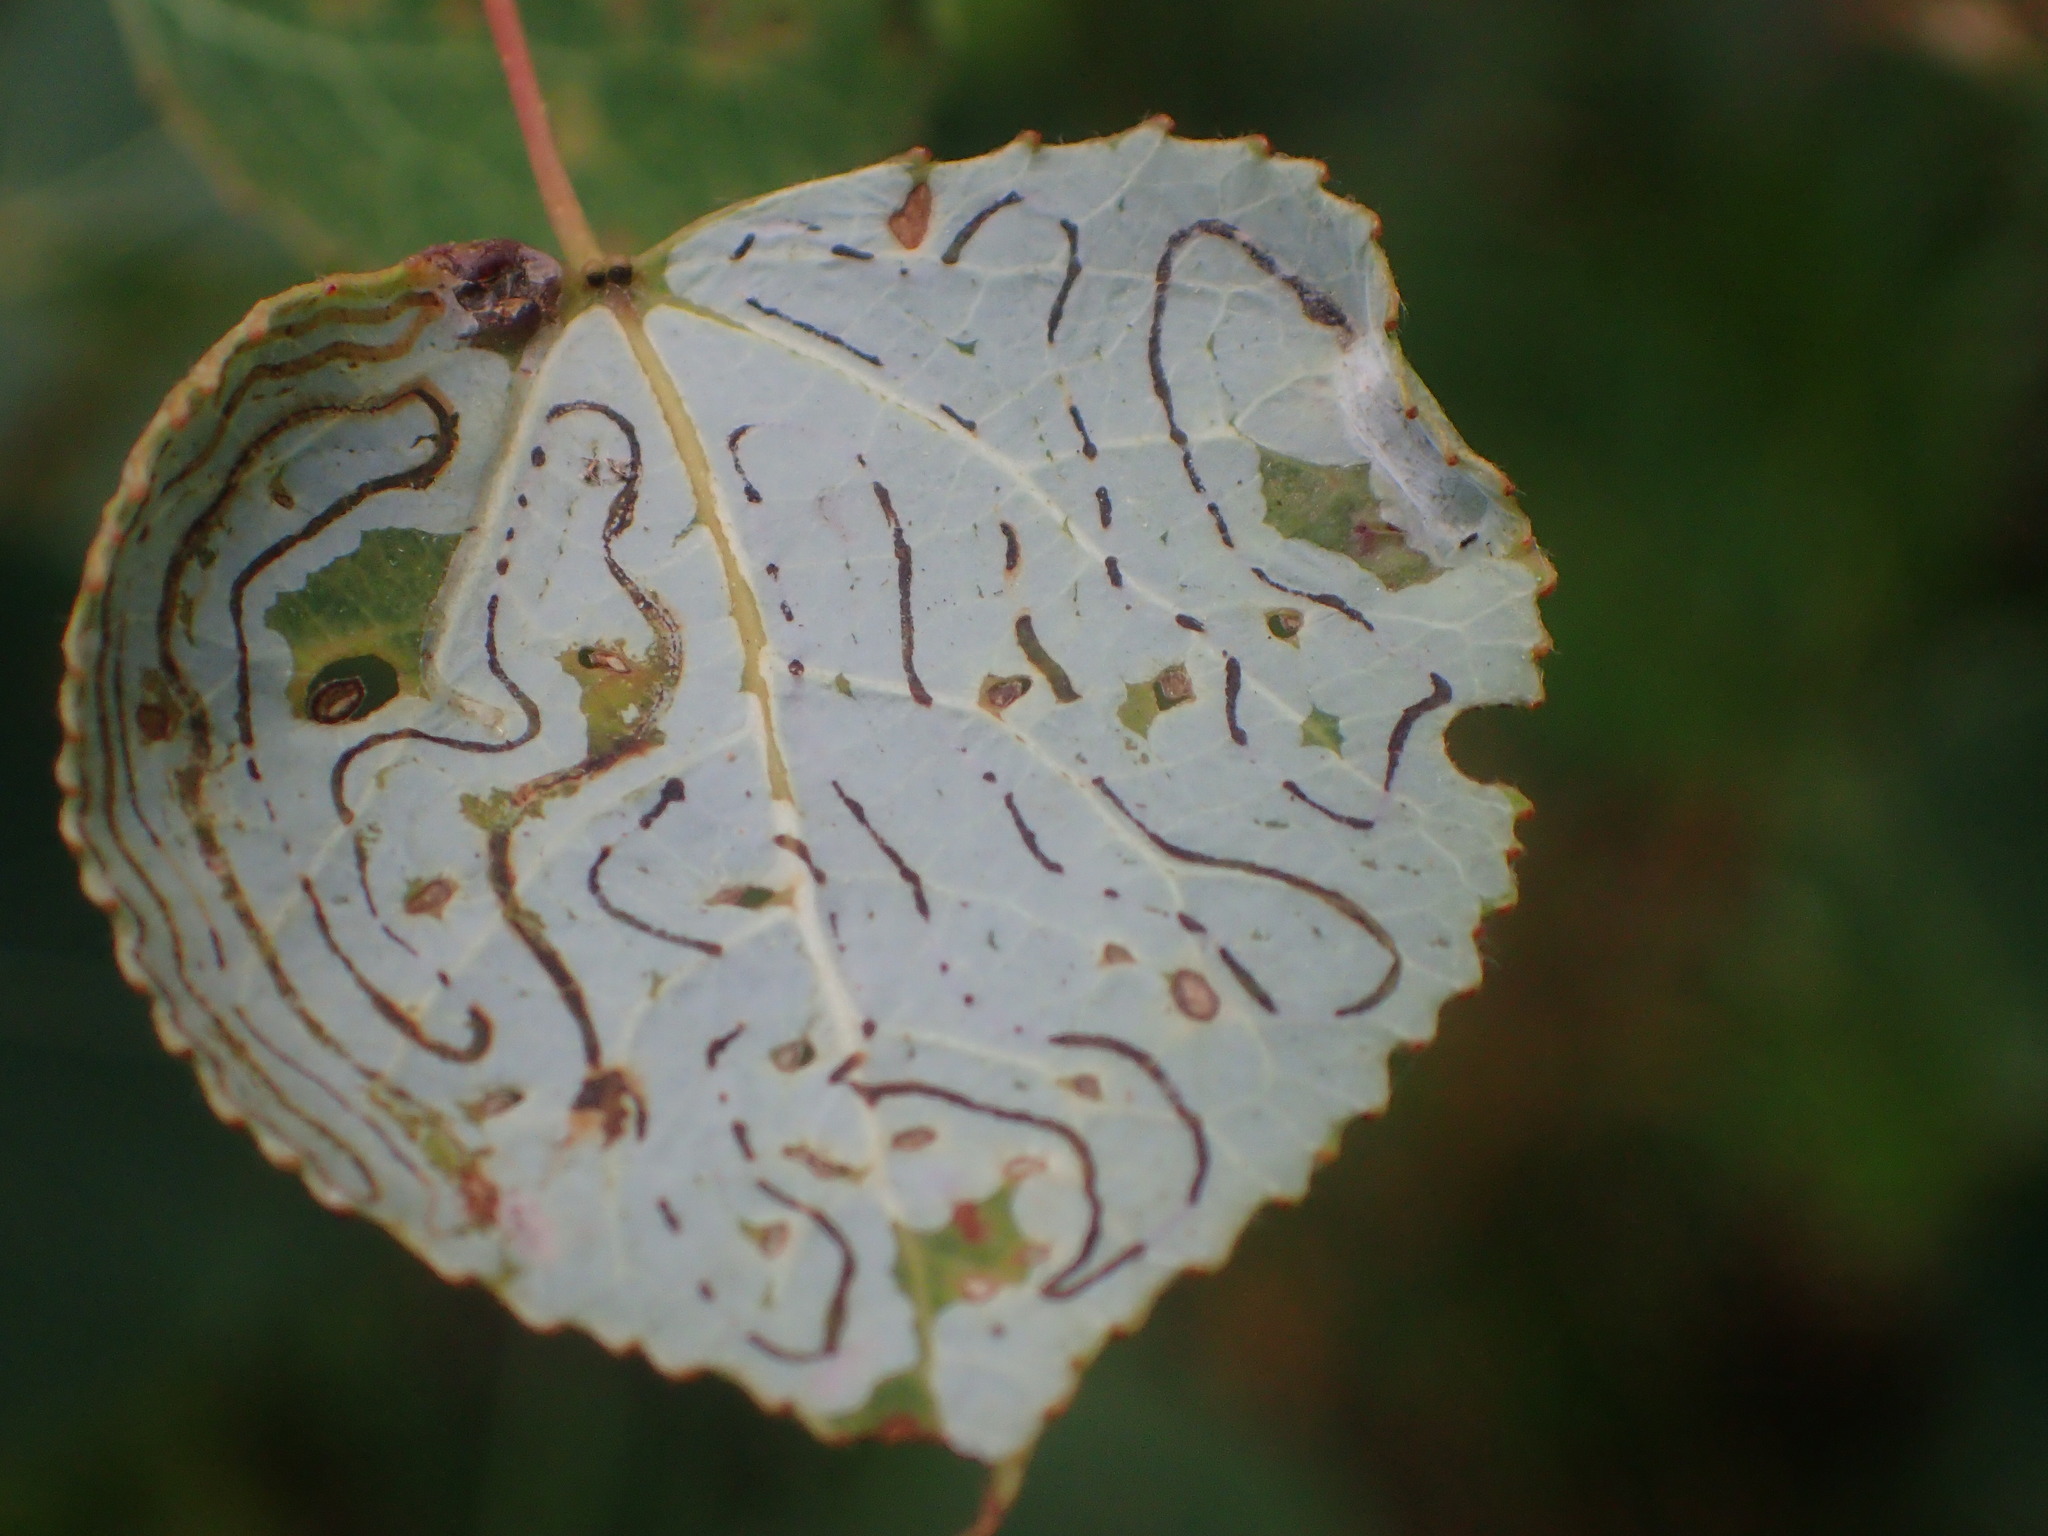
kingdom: Animalia
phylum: Arthropoda
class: Insecta
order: Lepidoptera
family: Gracillariidae
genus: Phyllocnistis
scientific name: Phyllocnistis populiella
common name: Aspen serpentine leafminer moth
